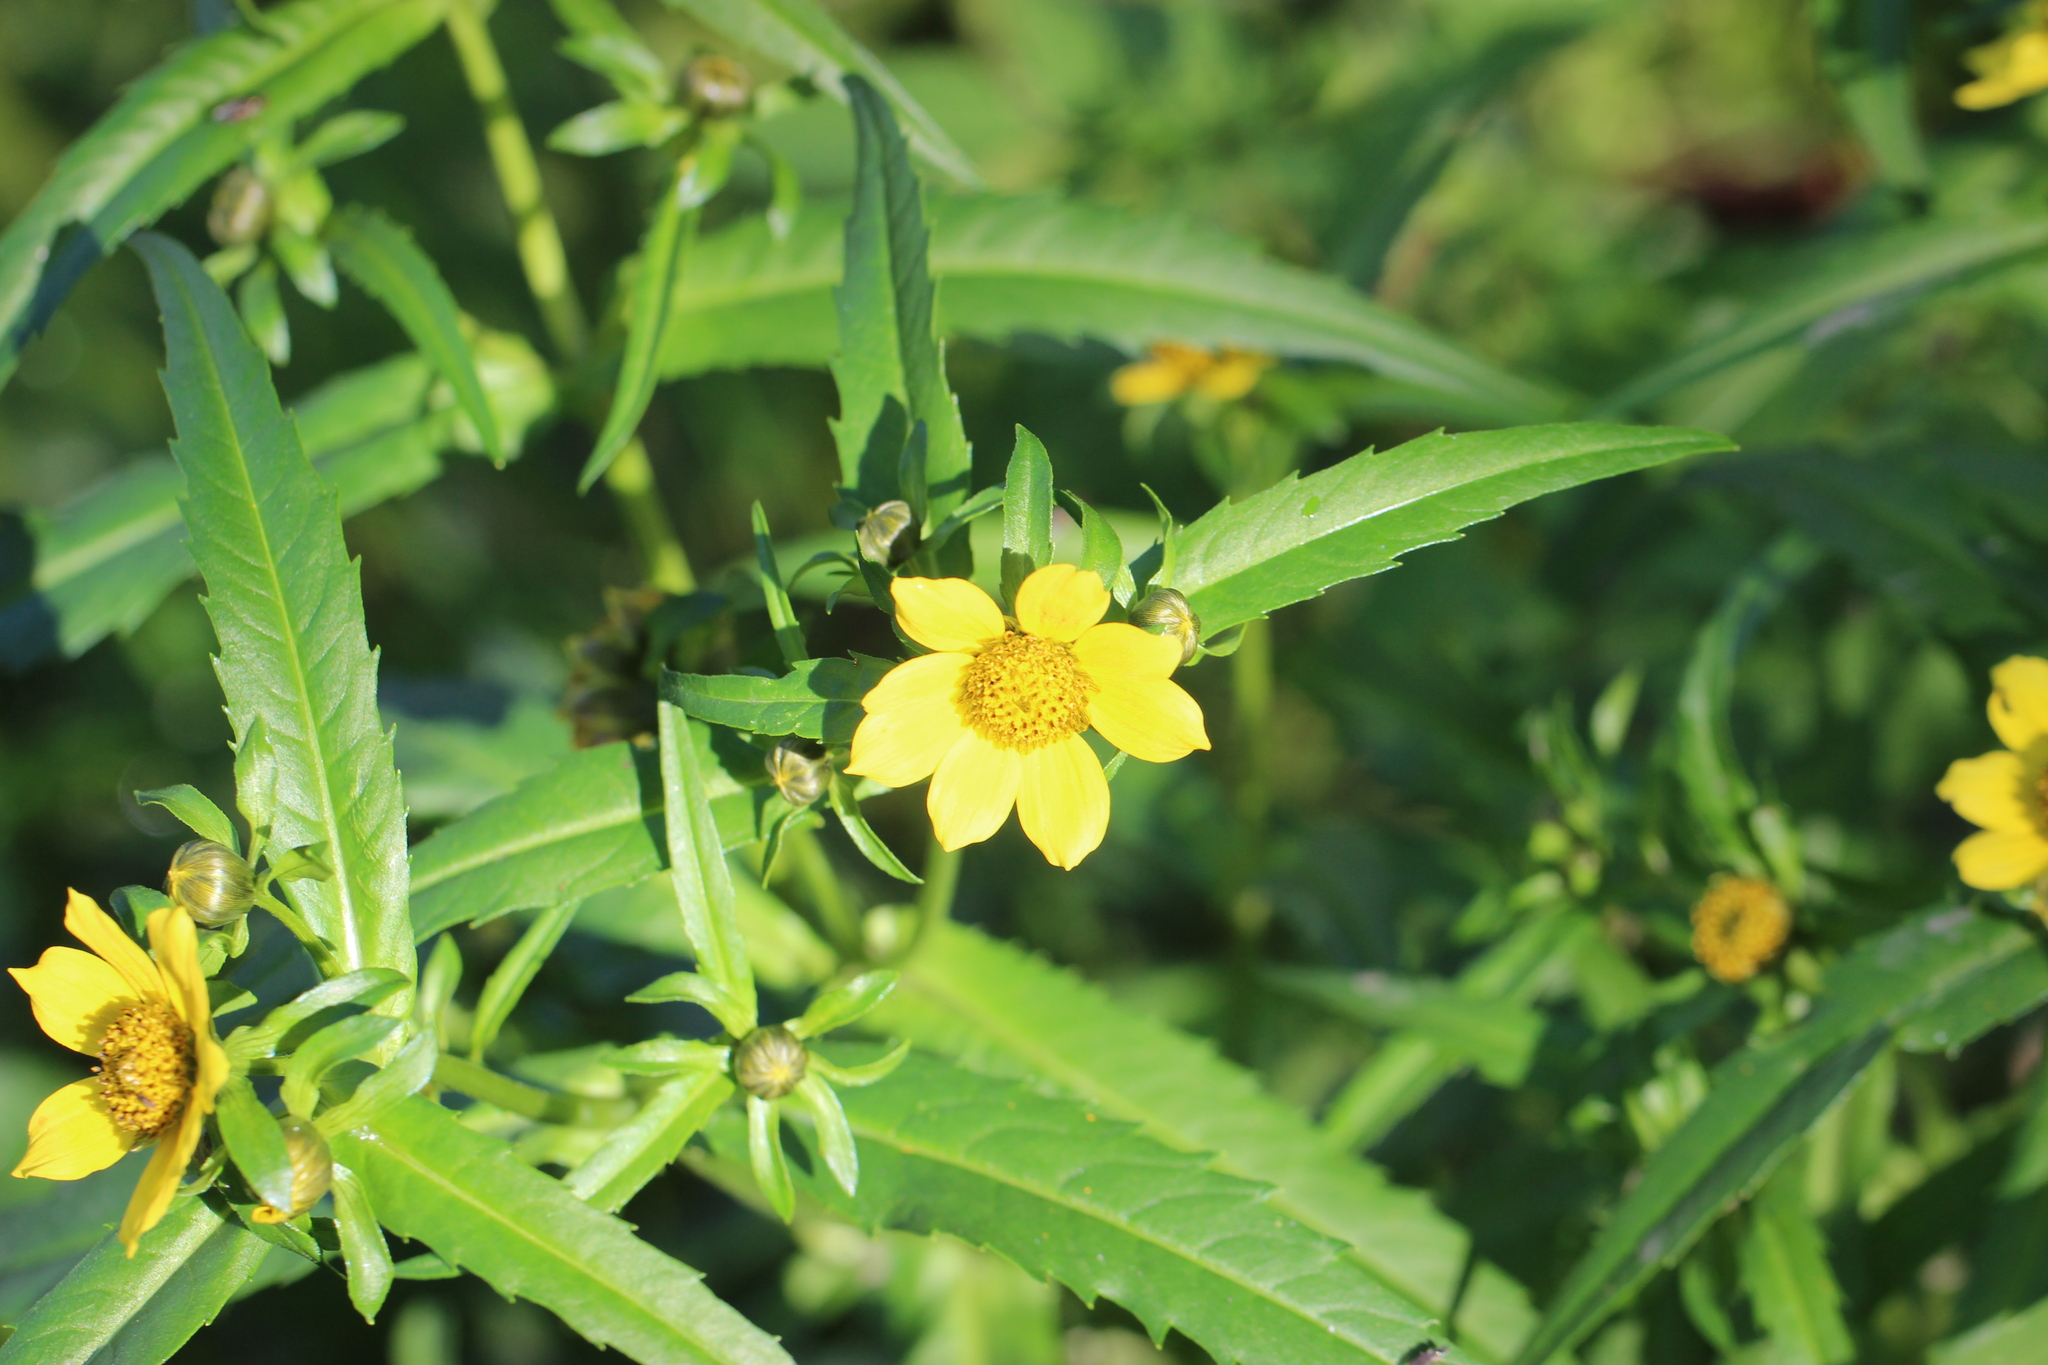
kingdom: Plantae
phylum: Tracheophyta
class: Magnoliopsida
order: Asterales
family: Asteraceae
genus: Bidens
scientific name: Bidens cernua
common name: Nodding bur-marigold
